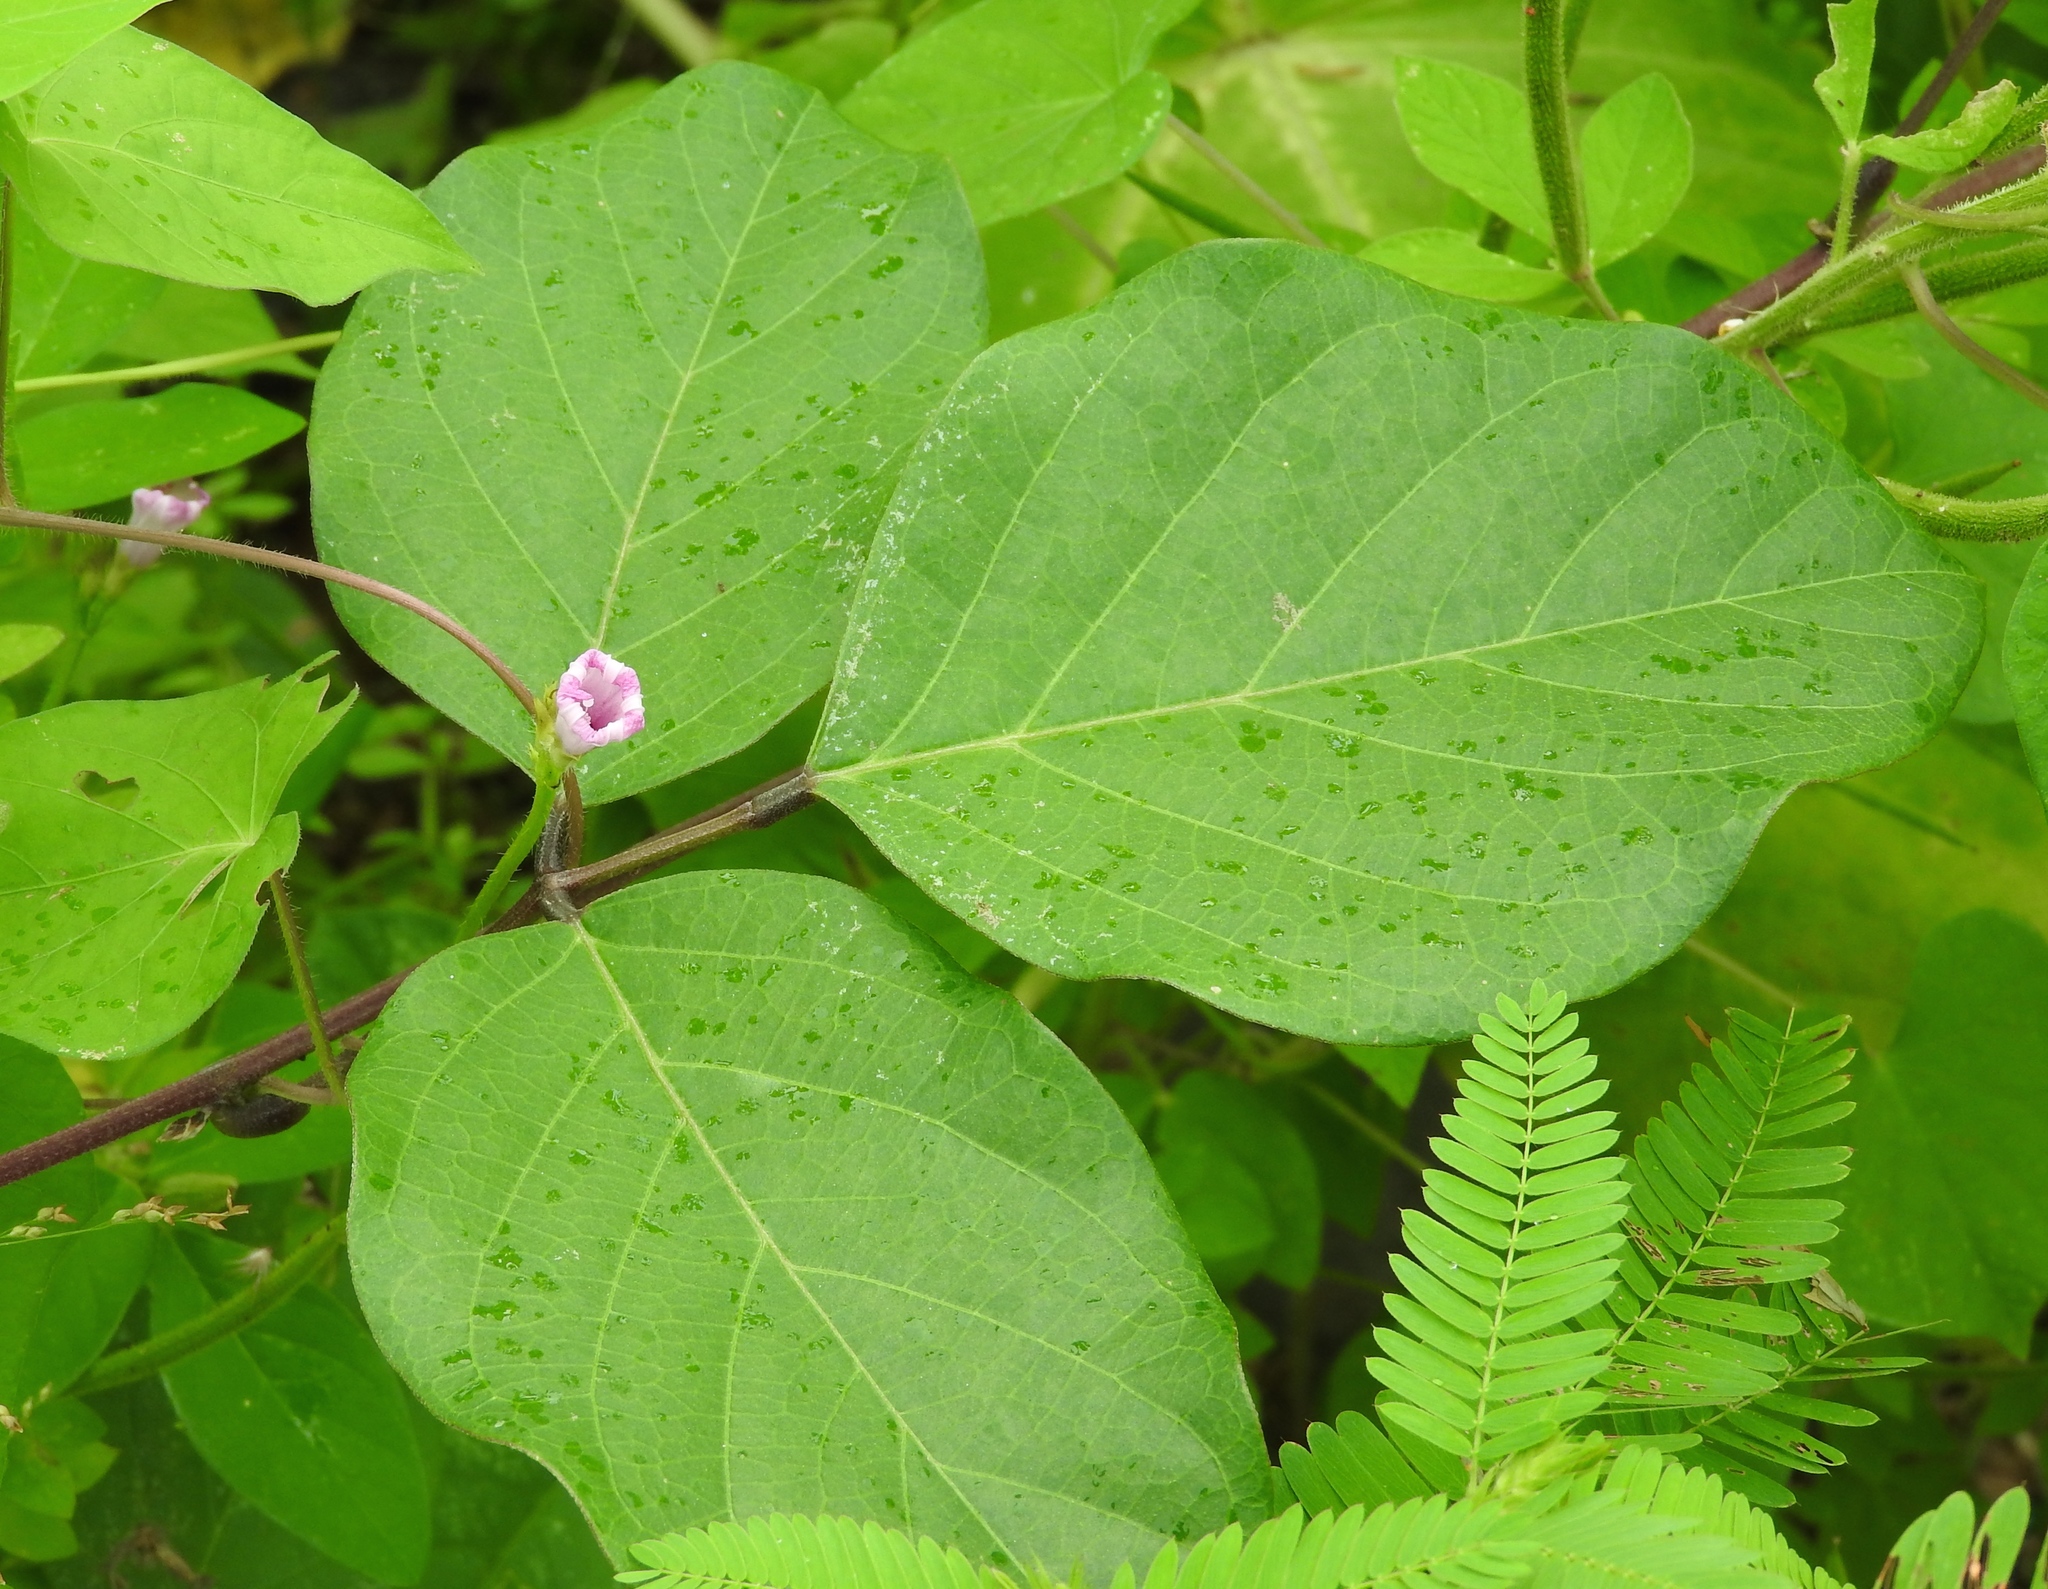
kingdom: Plantae
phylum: Tracheophyta
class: Magnoliopsida
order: Solanales
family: Convolvulaceae
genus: Ipomoea
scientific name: Ipomoea triloba
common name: Little-bell
